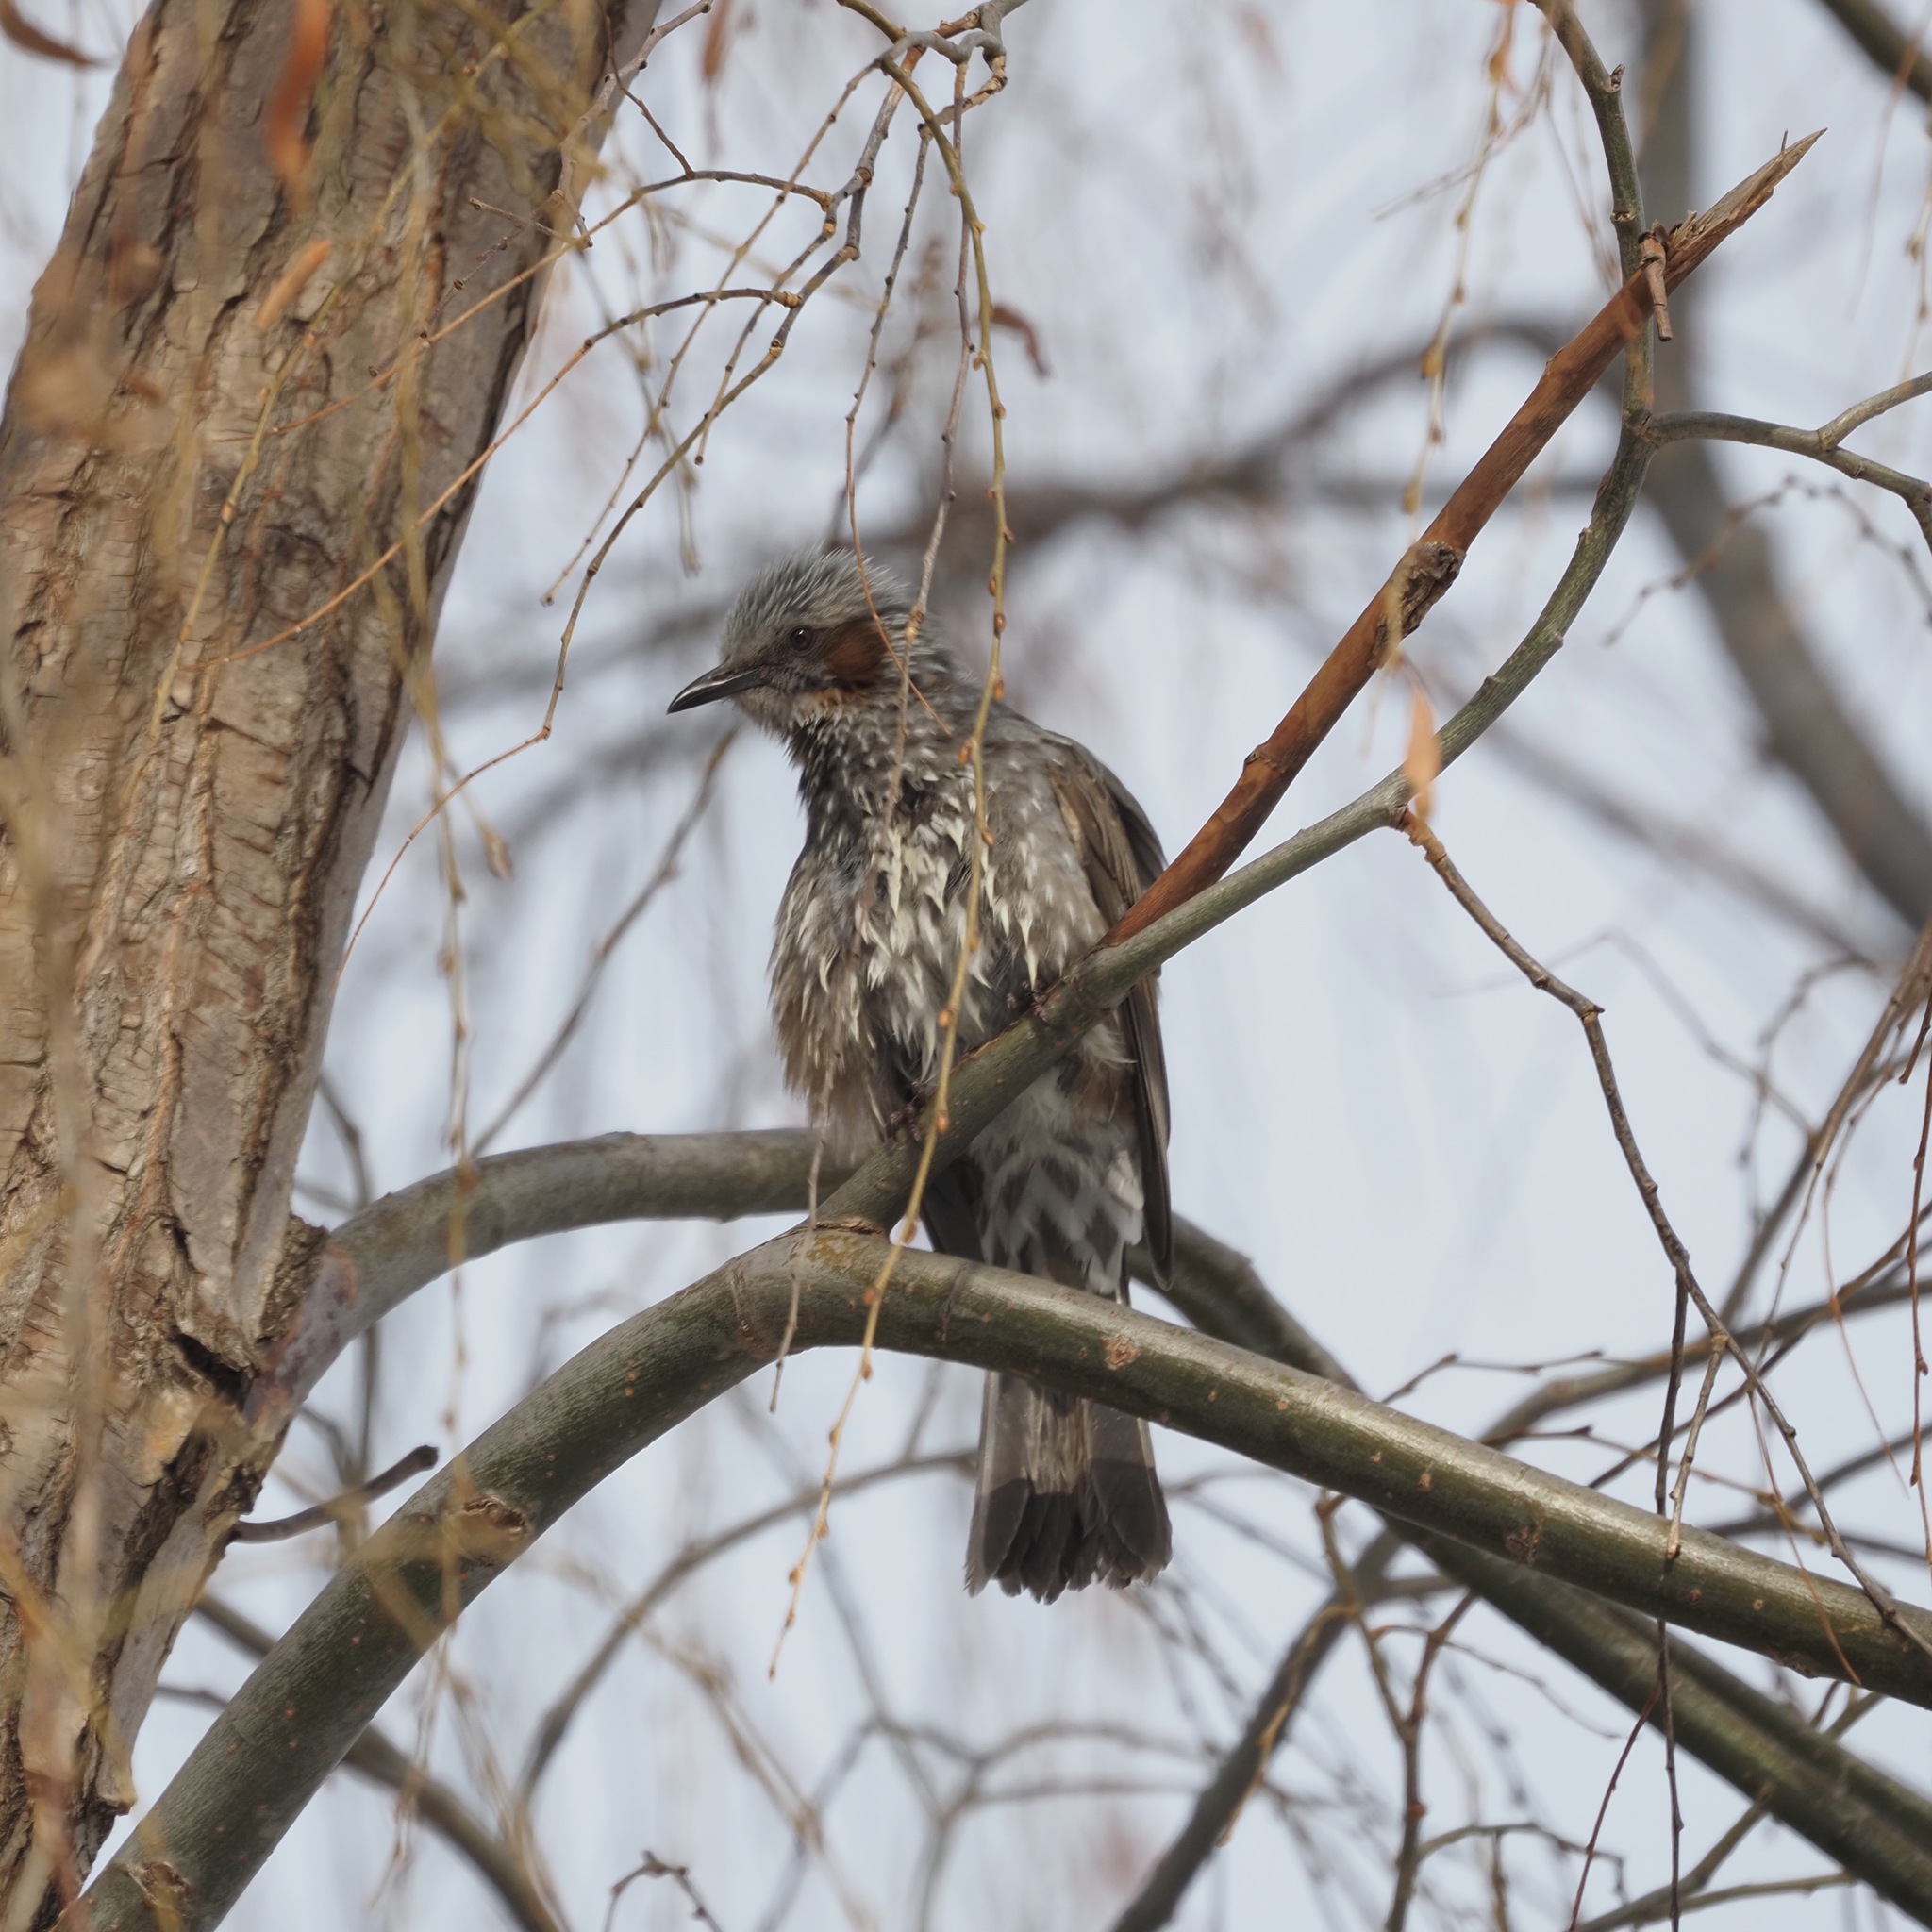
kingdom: Animalia
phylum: Chordata
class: Aves
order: Passeriformes
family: Pycnonotidae
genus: Hypsipetes
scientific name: Hypsipetes amaurotis
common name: Brown-eared bulbul
